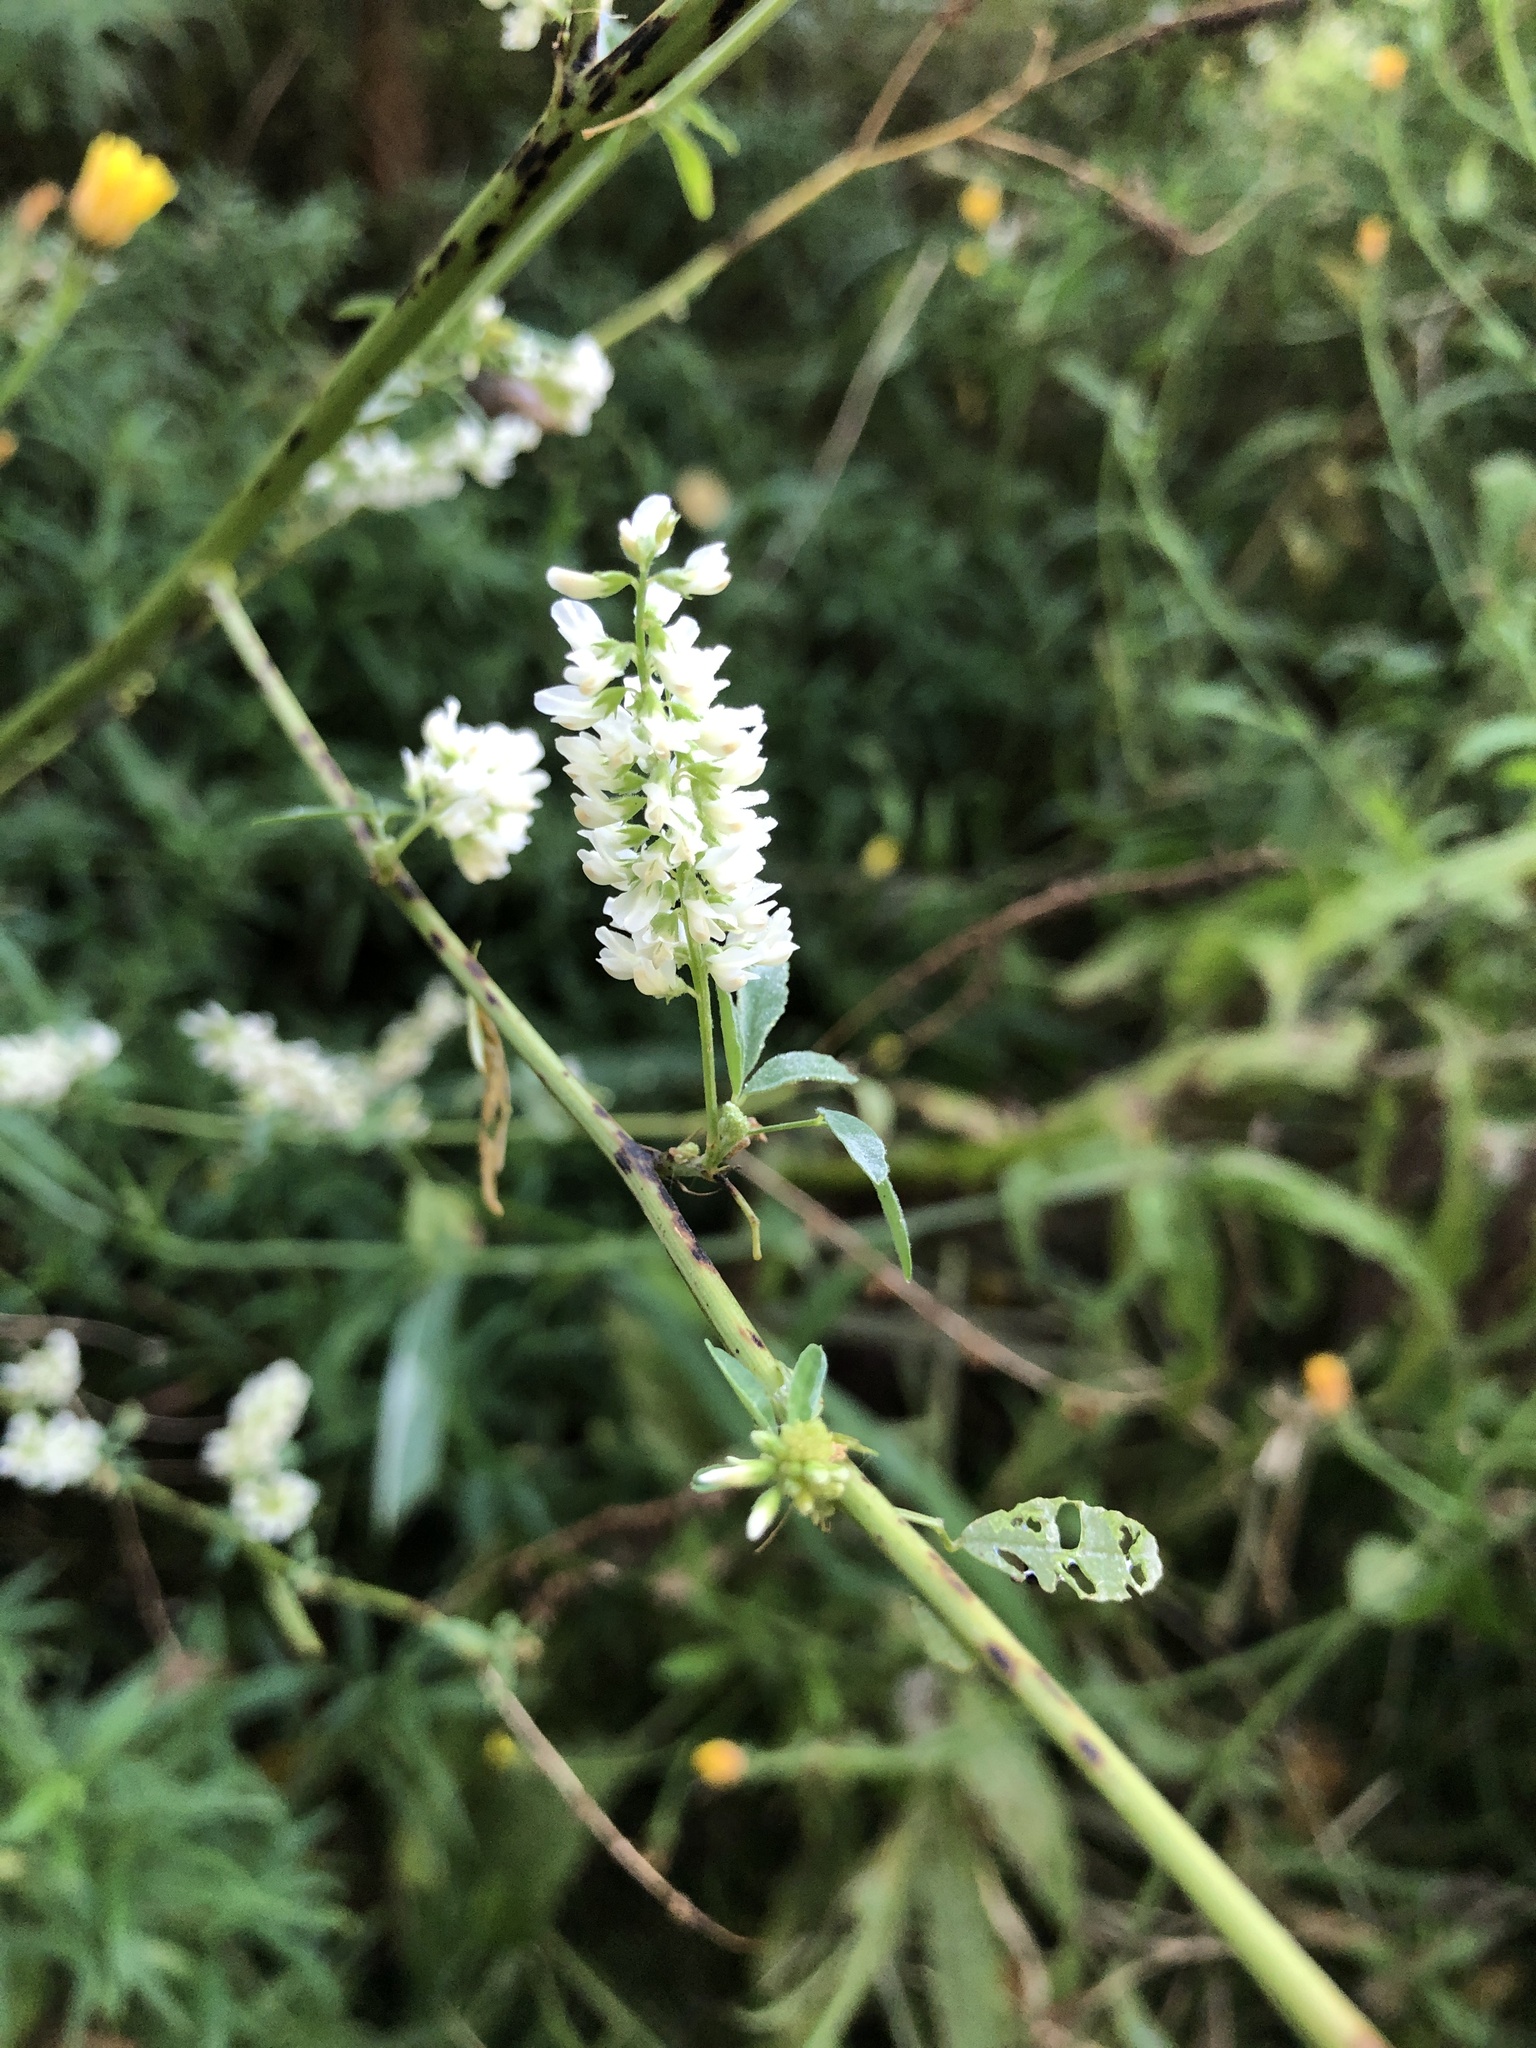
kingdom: Plantae
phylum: Tracheophyta
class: Magnoliopsida
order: Fabales
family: Fabaceae
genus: Melilotus
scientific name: Melilotus albus
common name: White melilot
